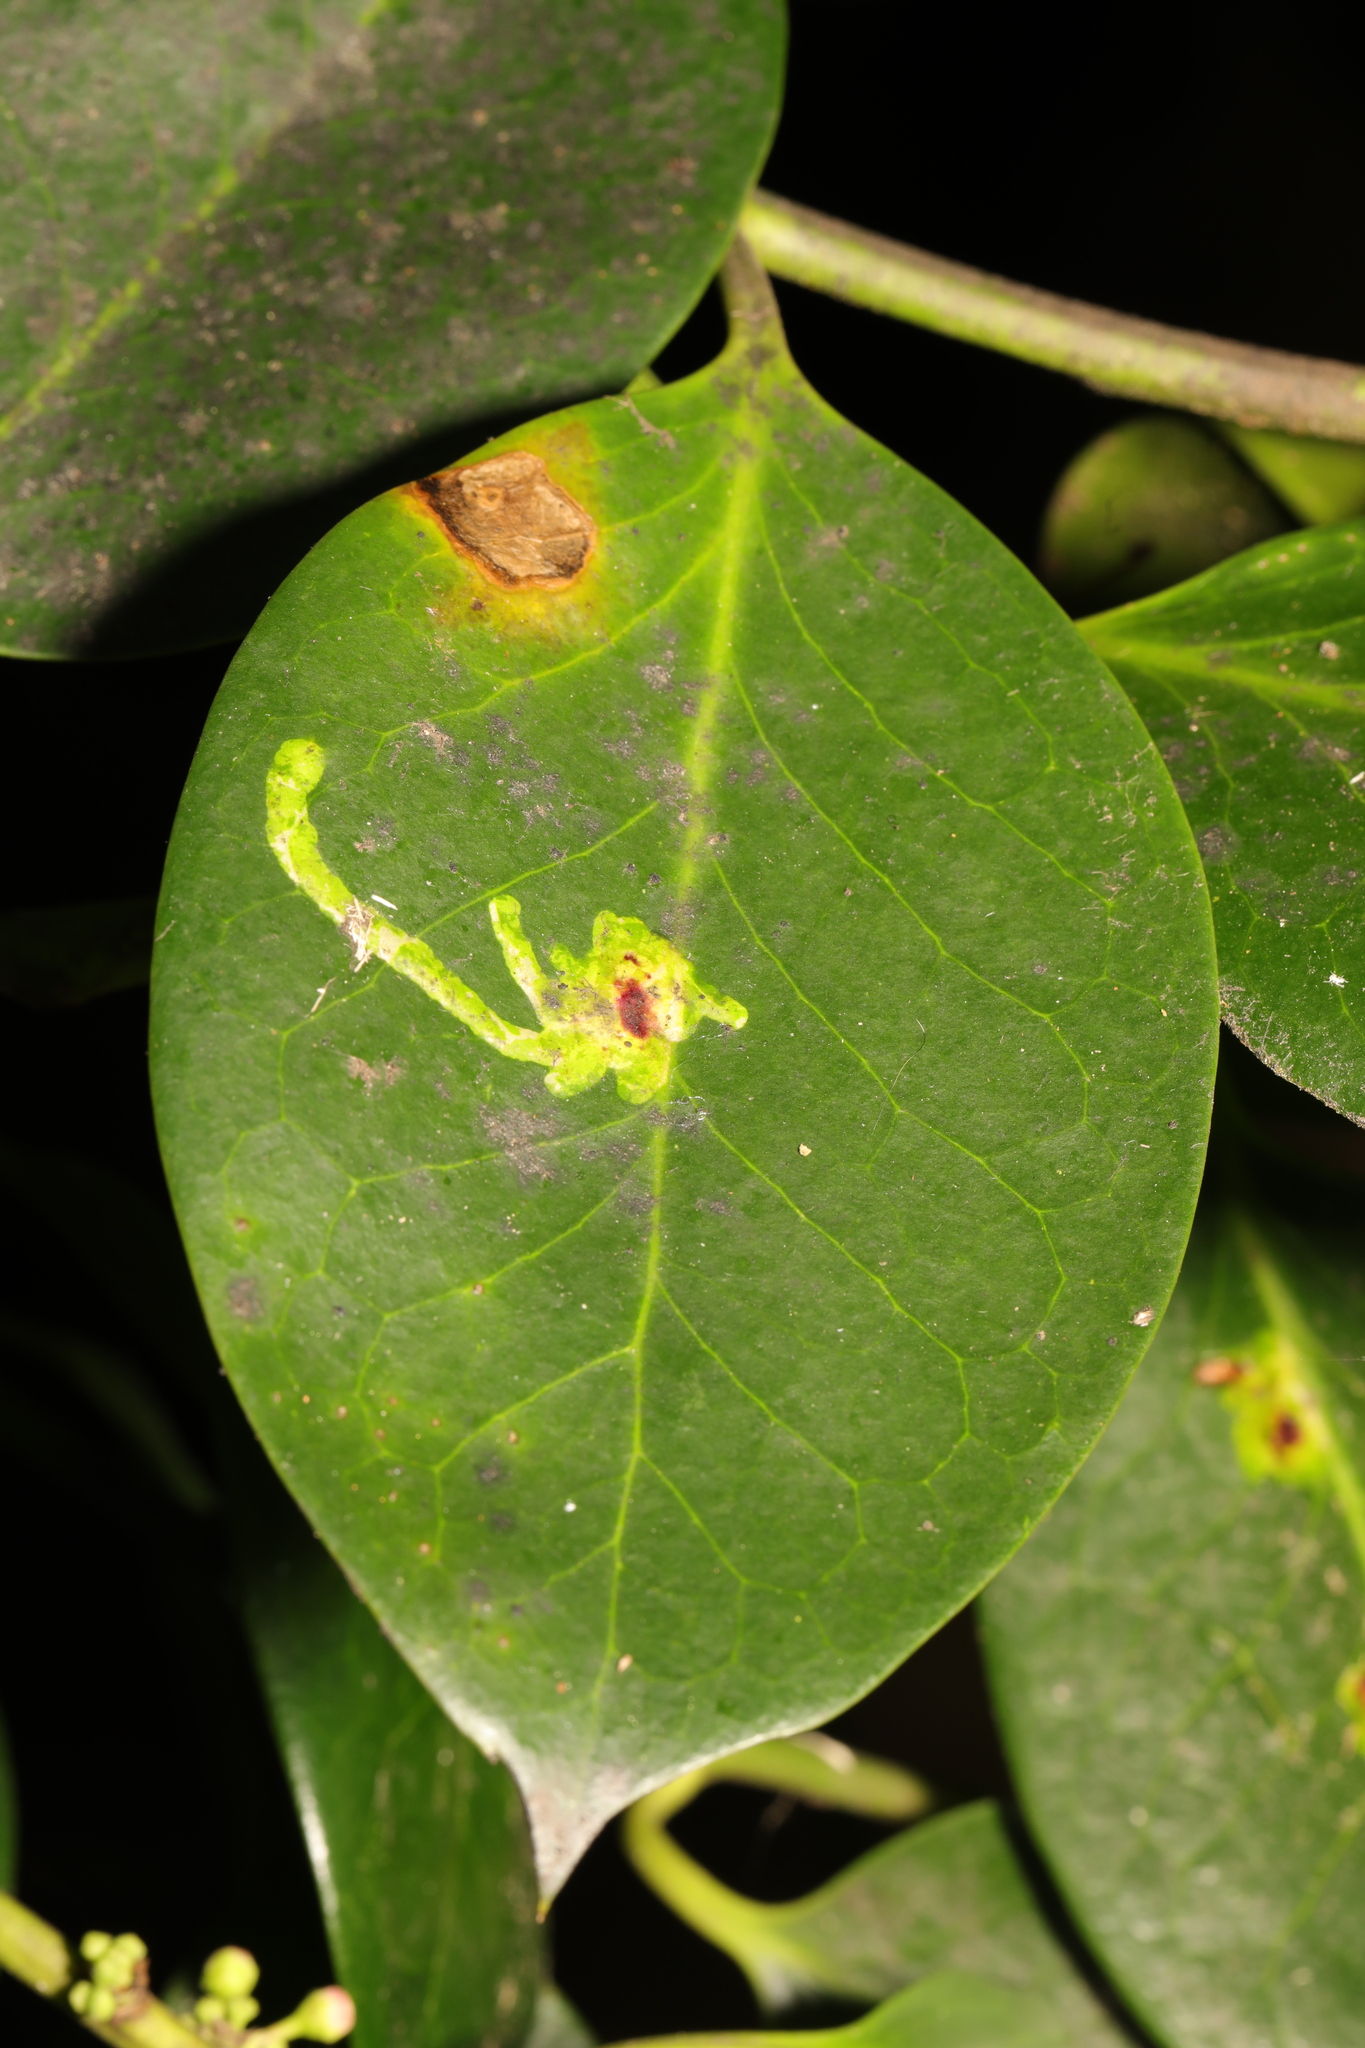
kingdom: Animalia
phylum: Arthropoda
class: Insecta
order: Diptera
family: Agromyzidae
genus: Phytomyza
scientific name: Phytomyza ilicis
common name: Holly leafminer
